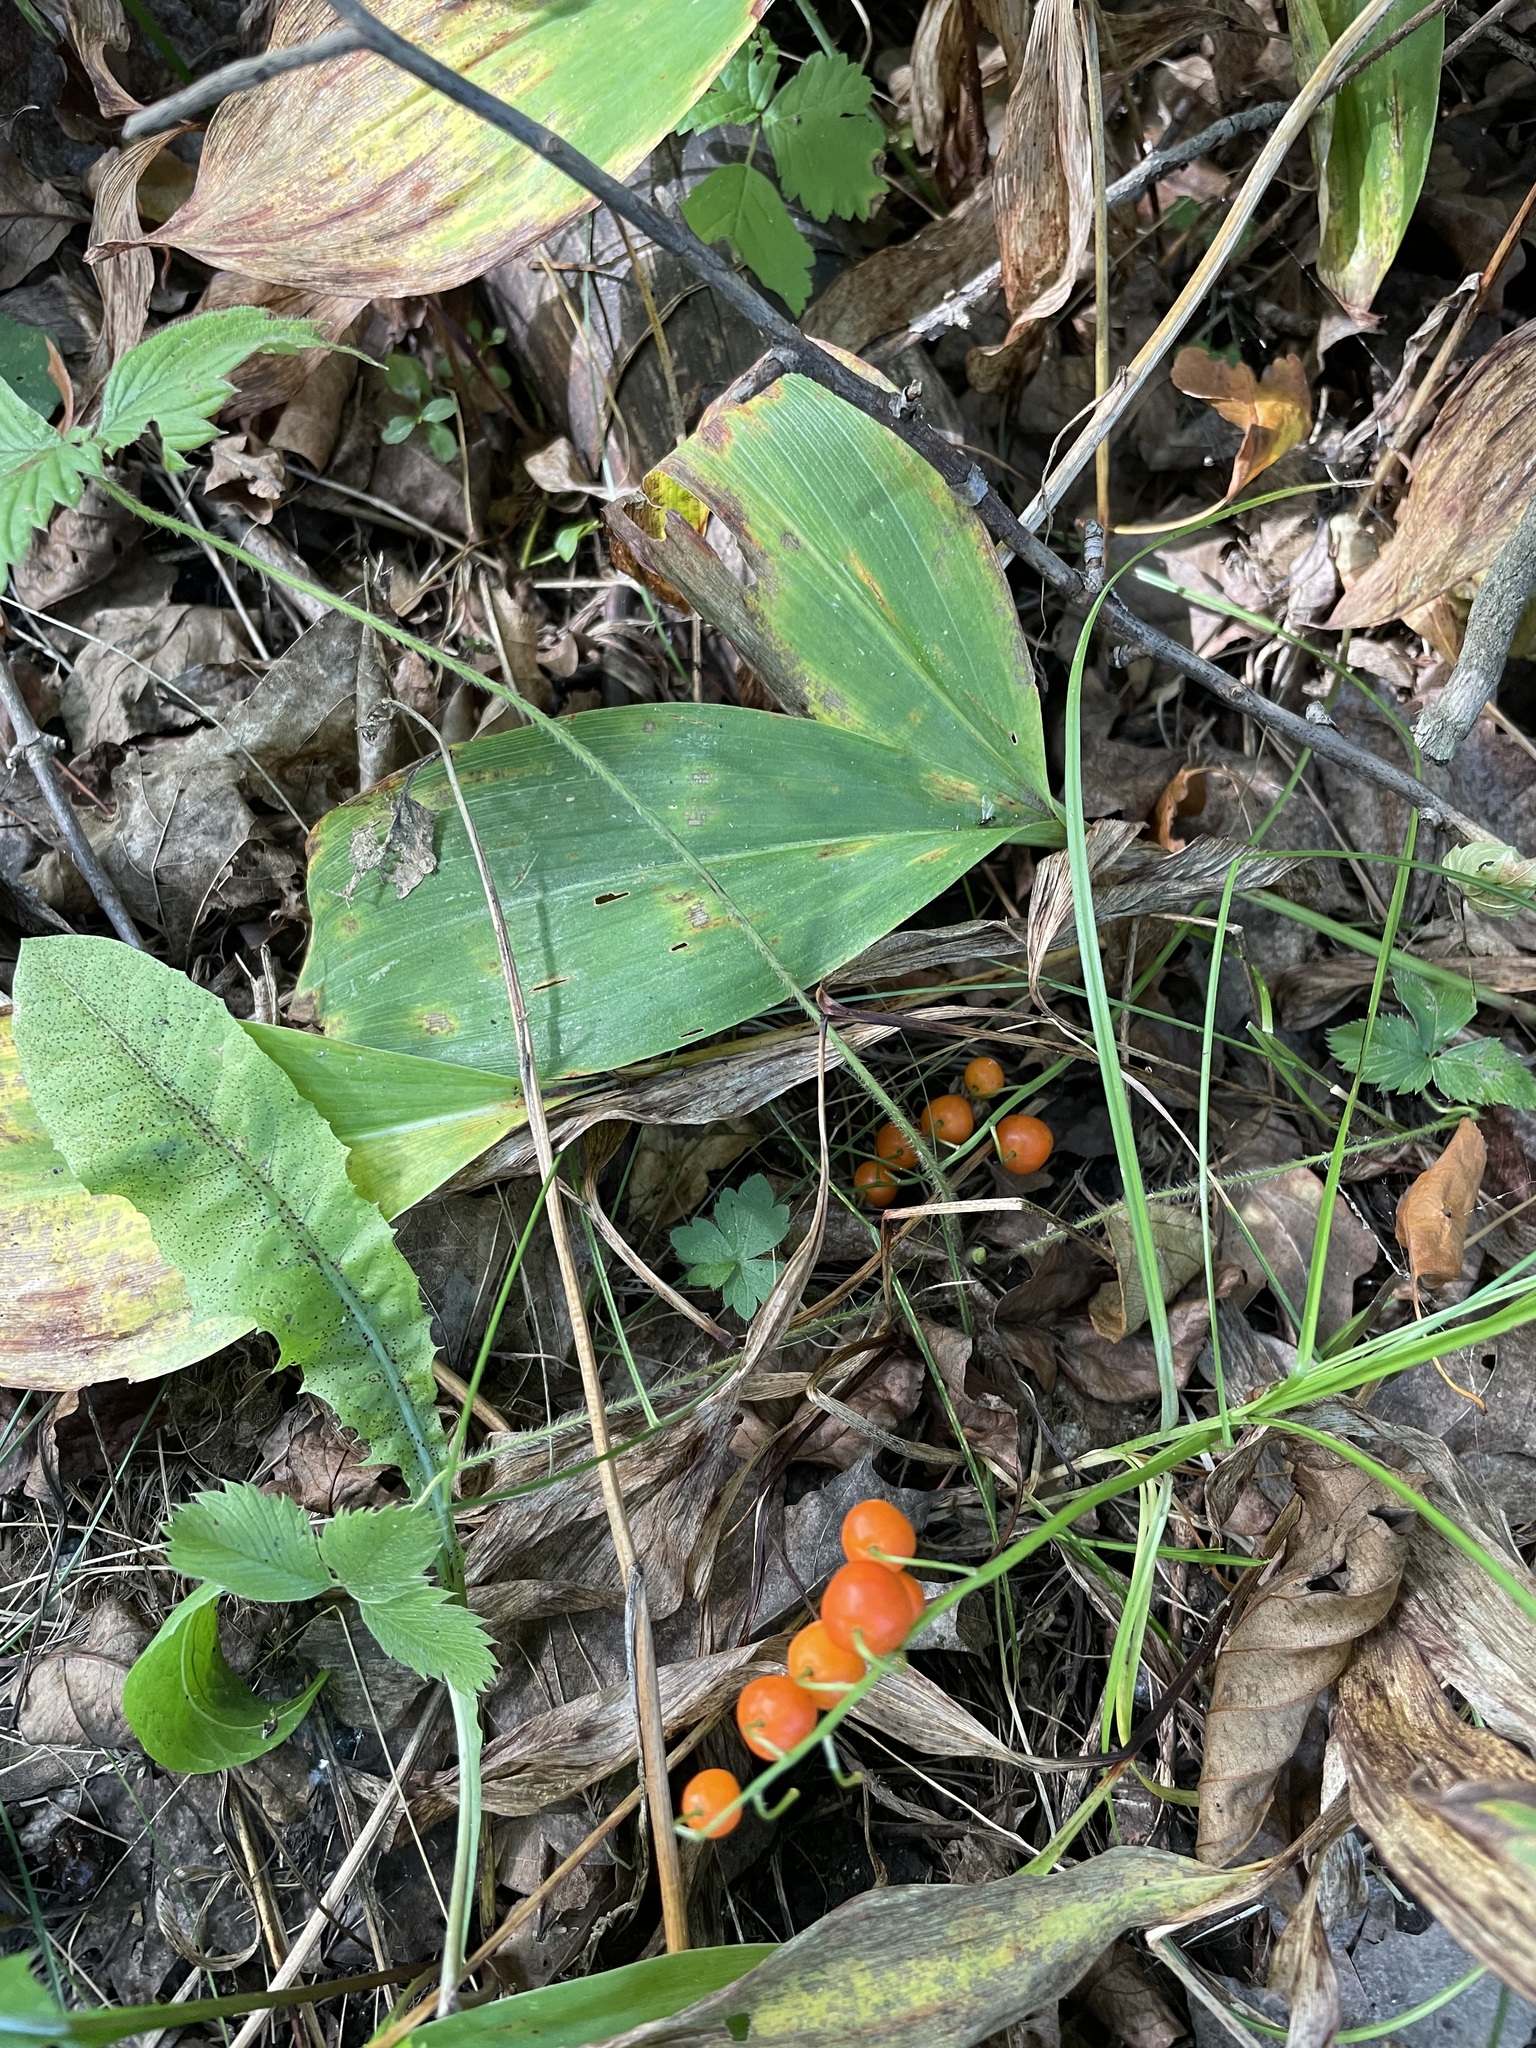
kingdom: Plantae
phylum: Tracheophyta
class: Liliopsida
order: Asparagales
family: Asparagaceae
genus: Convallaria
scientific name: Convallaria majalis
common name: Lily-of-the-valley
